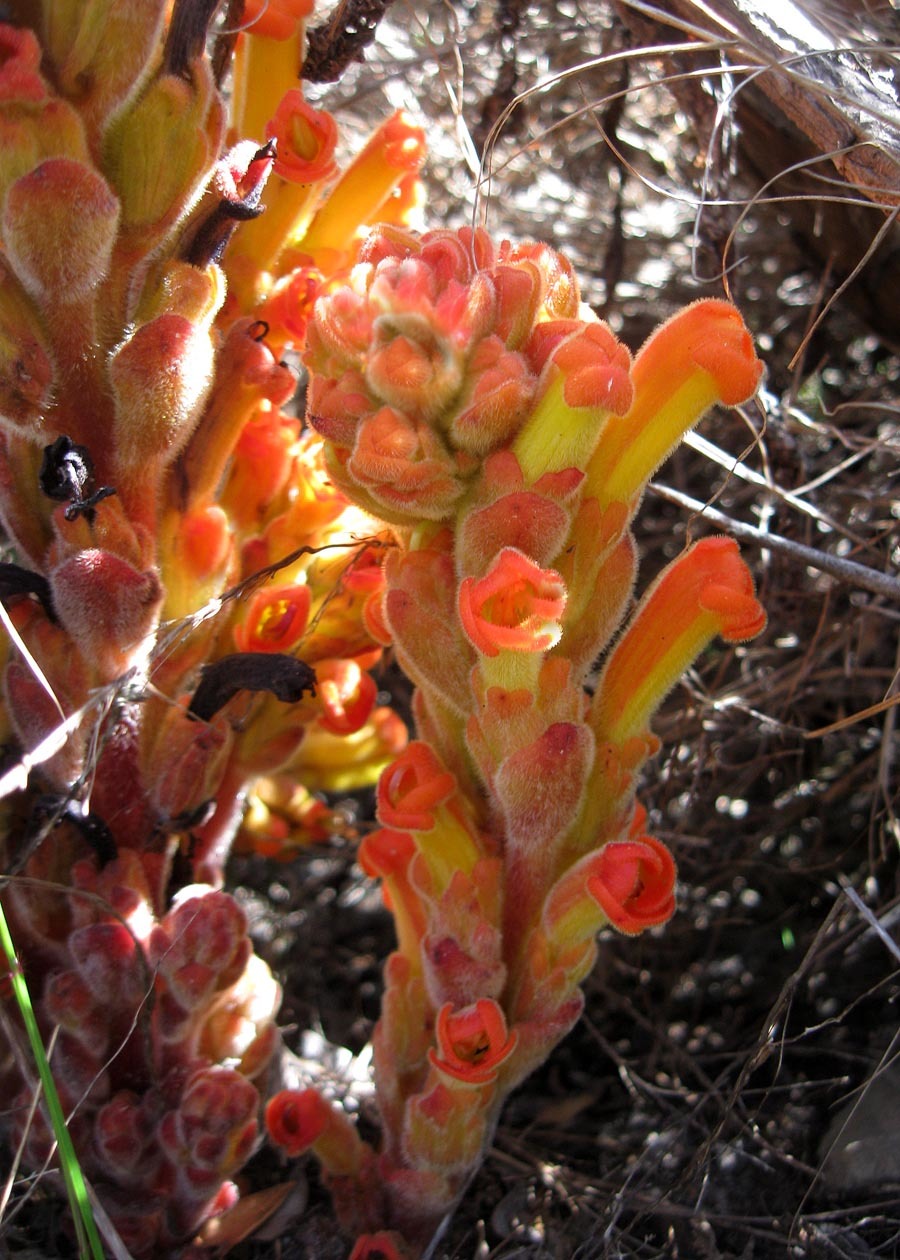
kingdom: Plantae
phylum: Tracheophyta
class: Magnoliopsida
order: Lamiales
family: Orobanchaceae
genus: Harveya
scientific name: Harveya squamosa
